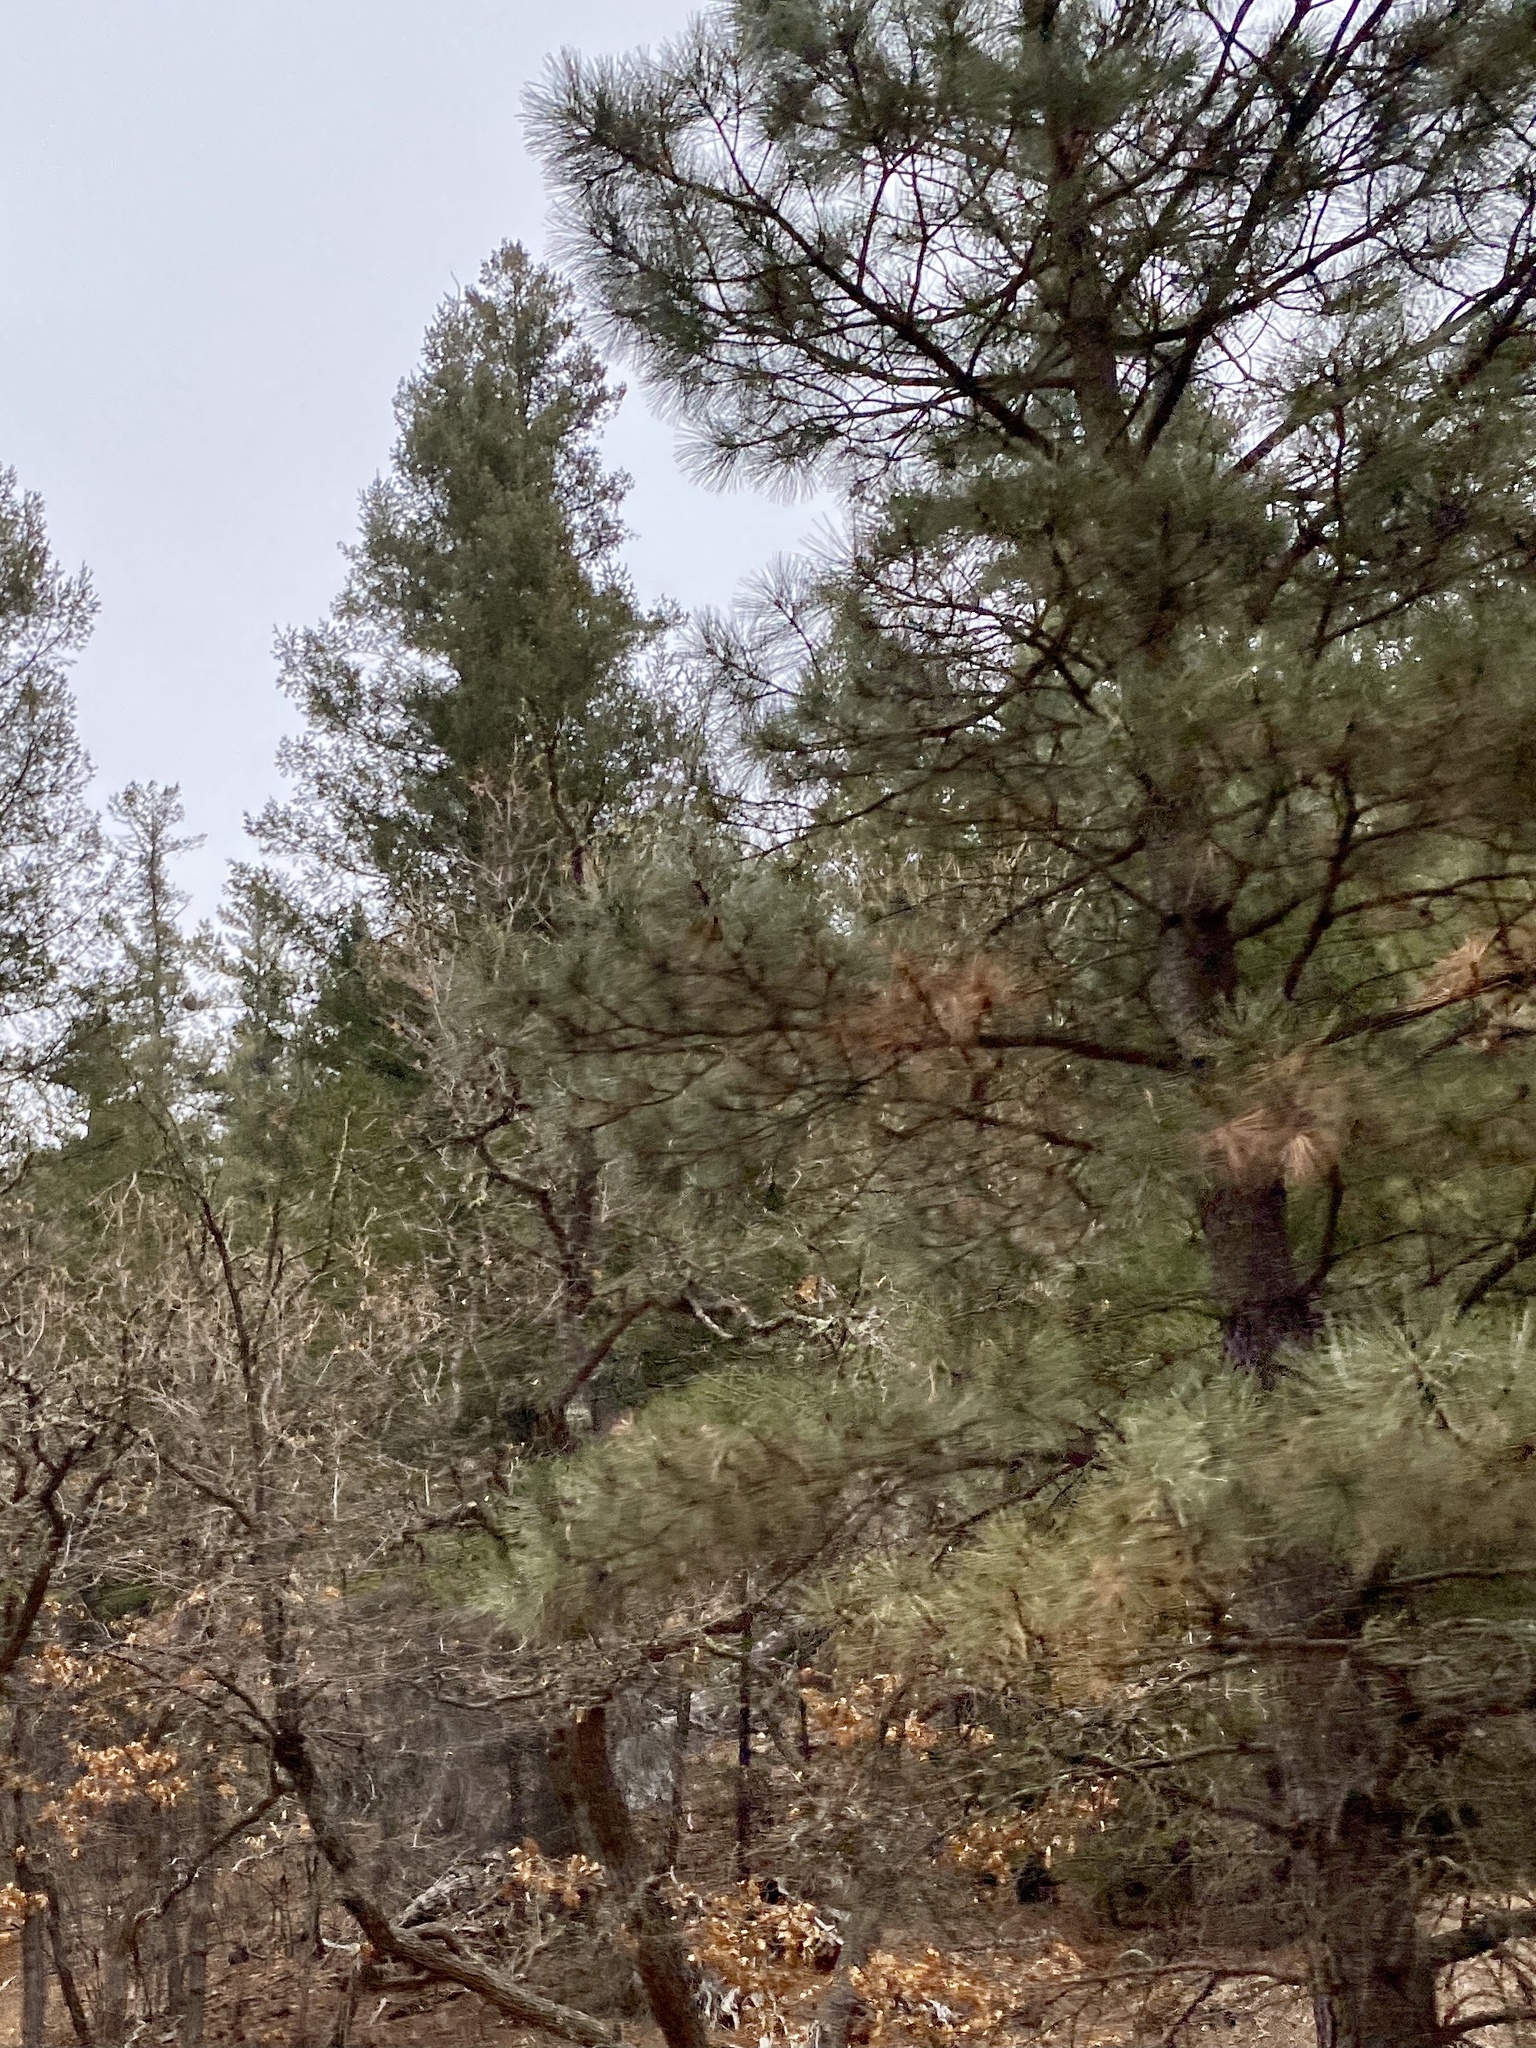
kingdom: Plantae
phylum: Tracheophyta
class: Pinopsida
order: Pinales
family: Pinaceae
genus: Pinus
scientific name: Pinus ponderosa
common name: Western yellow-pine
